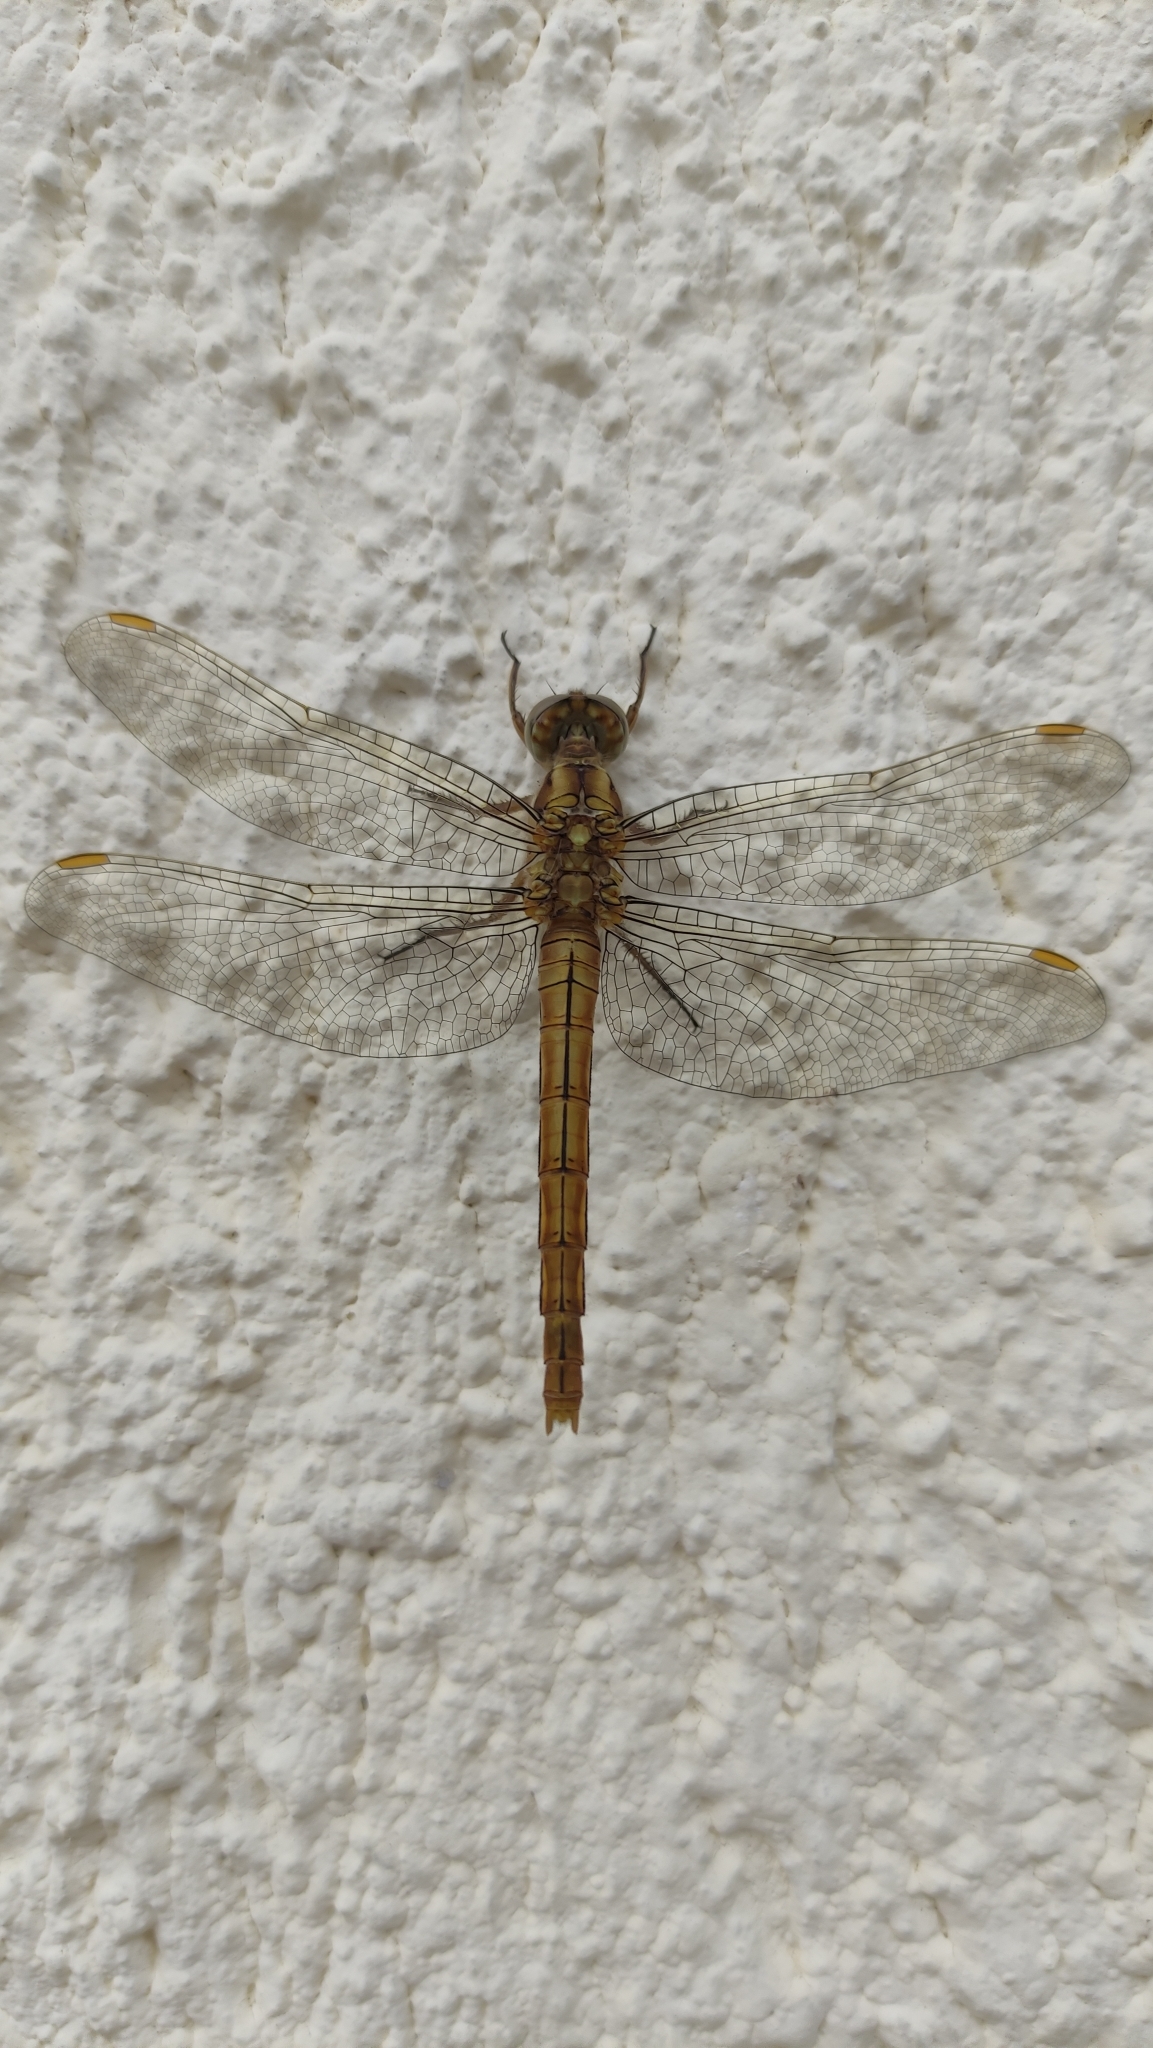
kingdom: Animalia
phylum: Arthropoda
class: Insecta
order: Odonata
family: Libellulidae
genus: Orthetrum
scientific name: Orthetrum coerulescens
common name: Keeled skimmer
